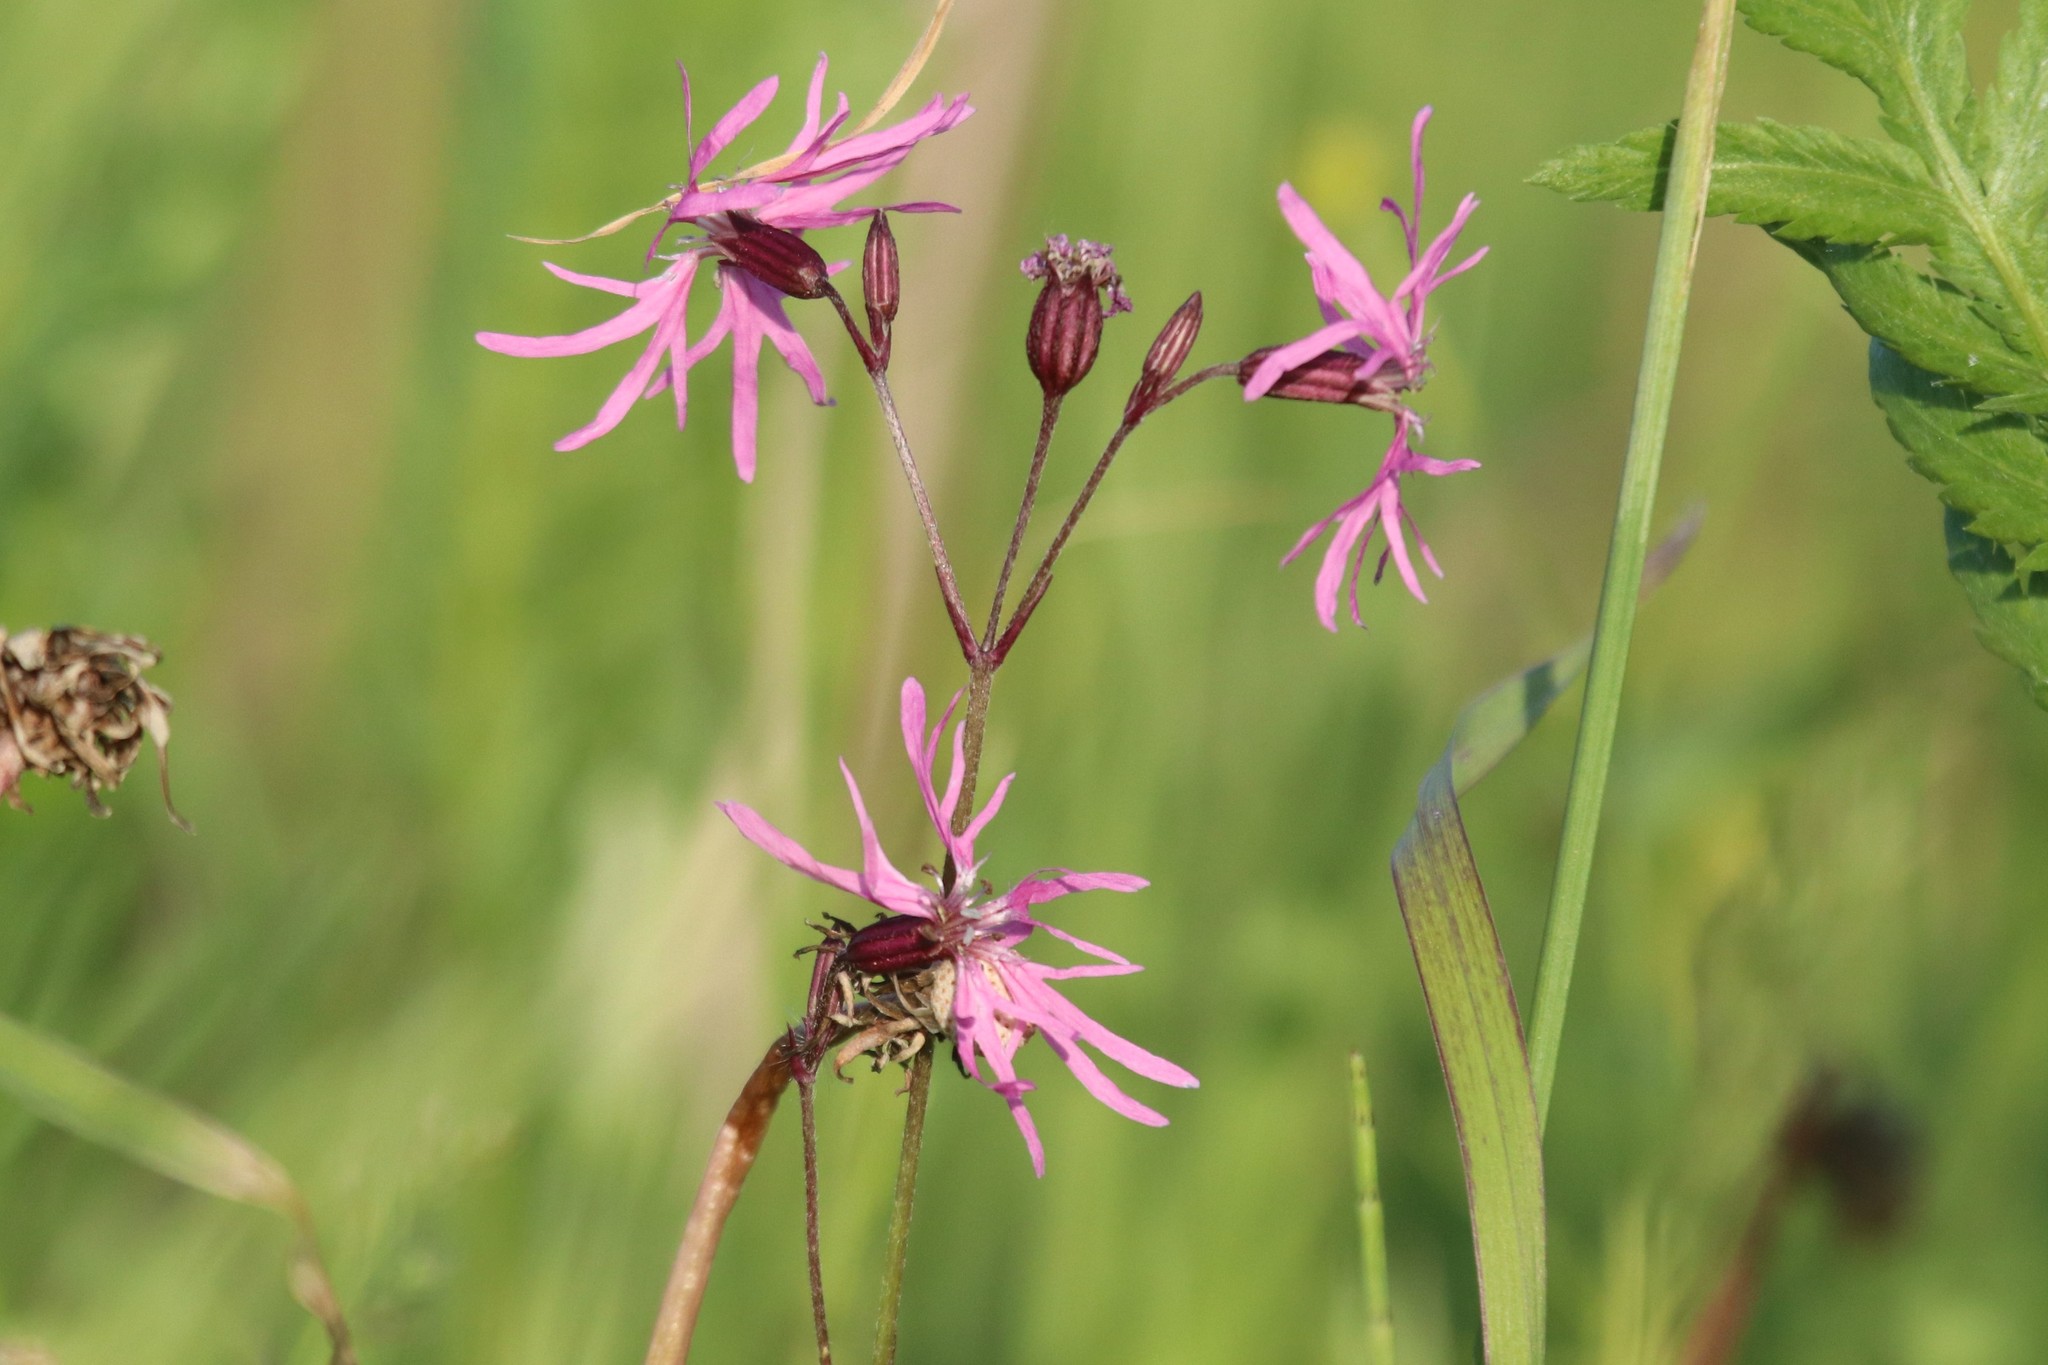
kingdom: Plantae
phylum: Tracheophyta
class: Magnoliopsida
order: Caryophyllales
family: Caryophyllaceae
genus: Silene
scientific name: Silene flos-cuculi
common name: Ragged-robin
